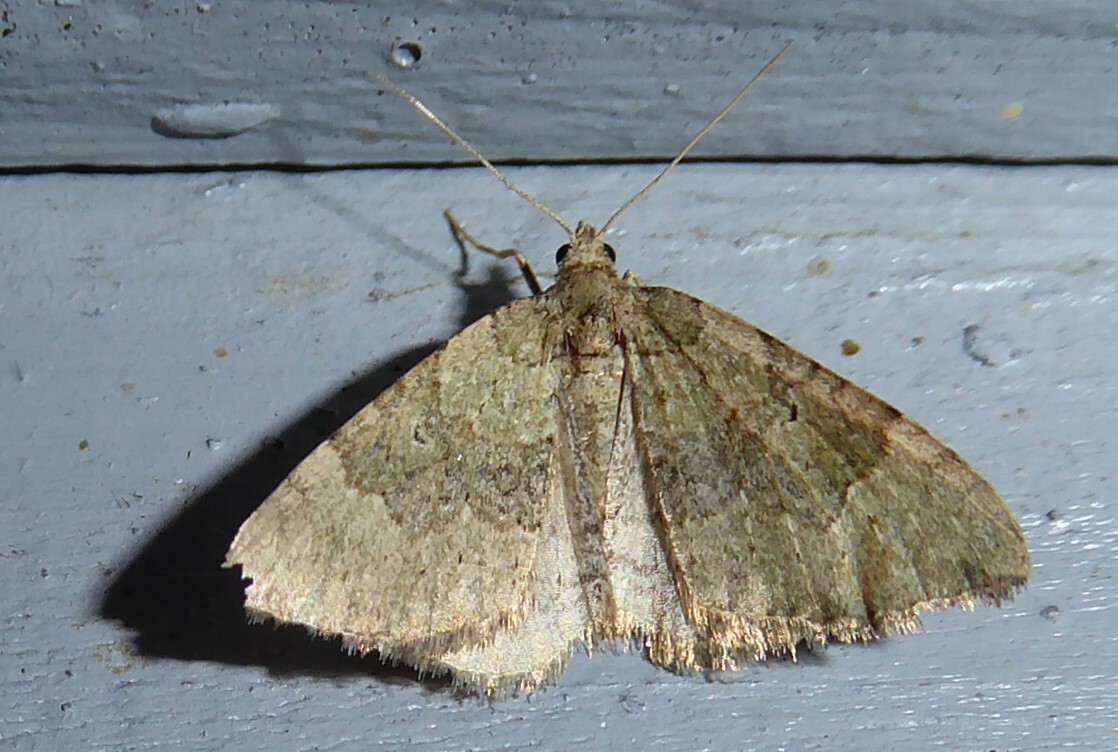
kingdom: Animalia
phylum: Arthropoda
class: Insecta
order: Lepidoptera
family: Geometridae
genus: Epyaxa
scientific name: Epyaxa rosearia
